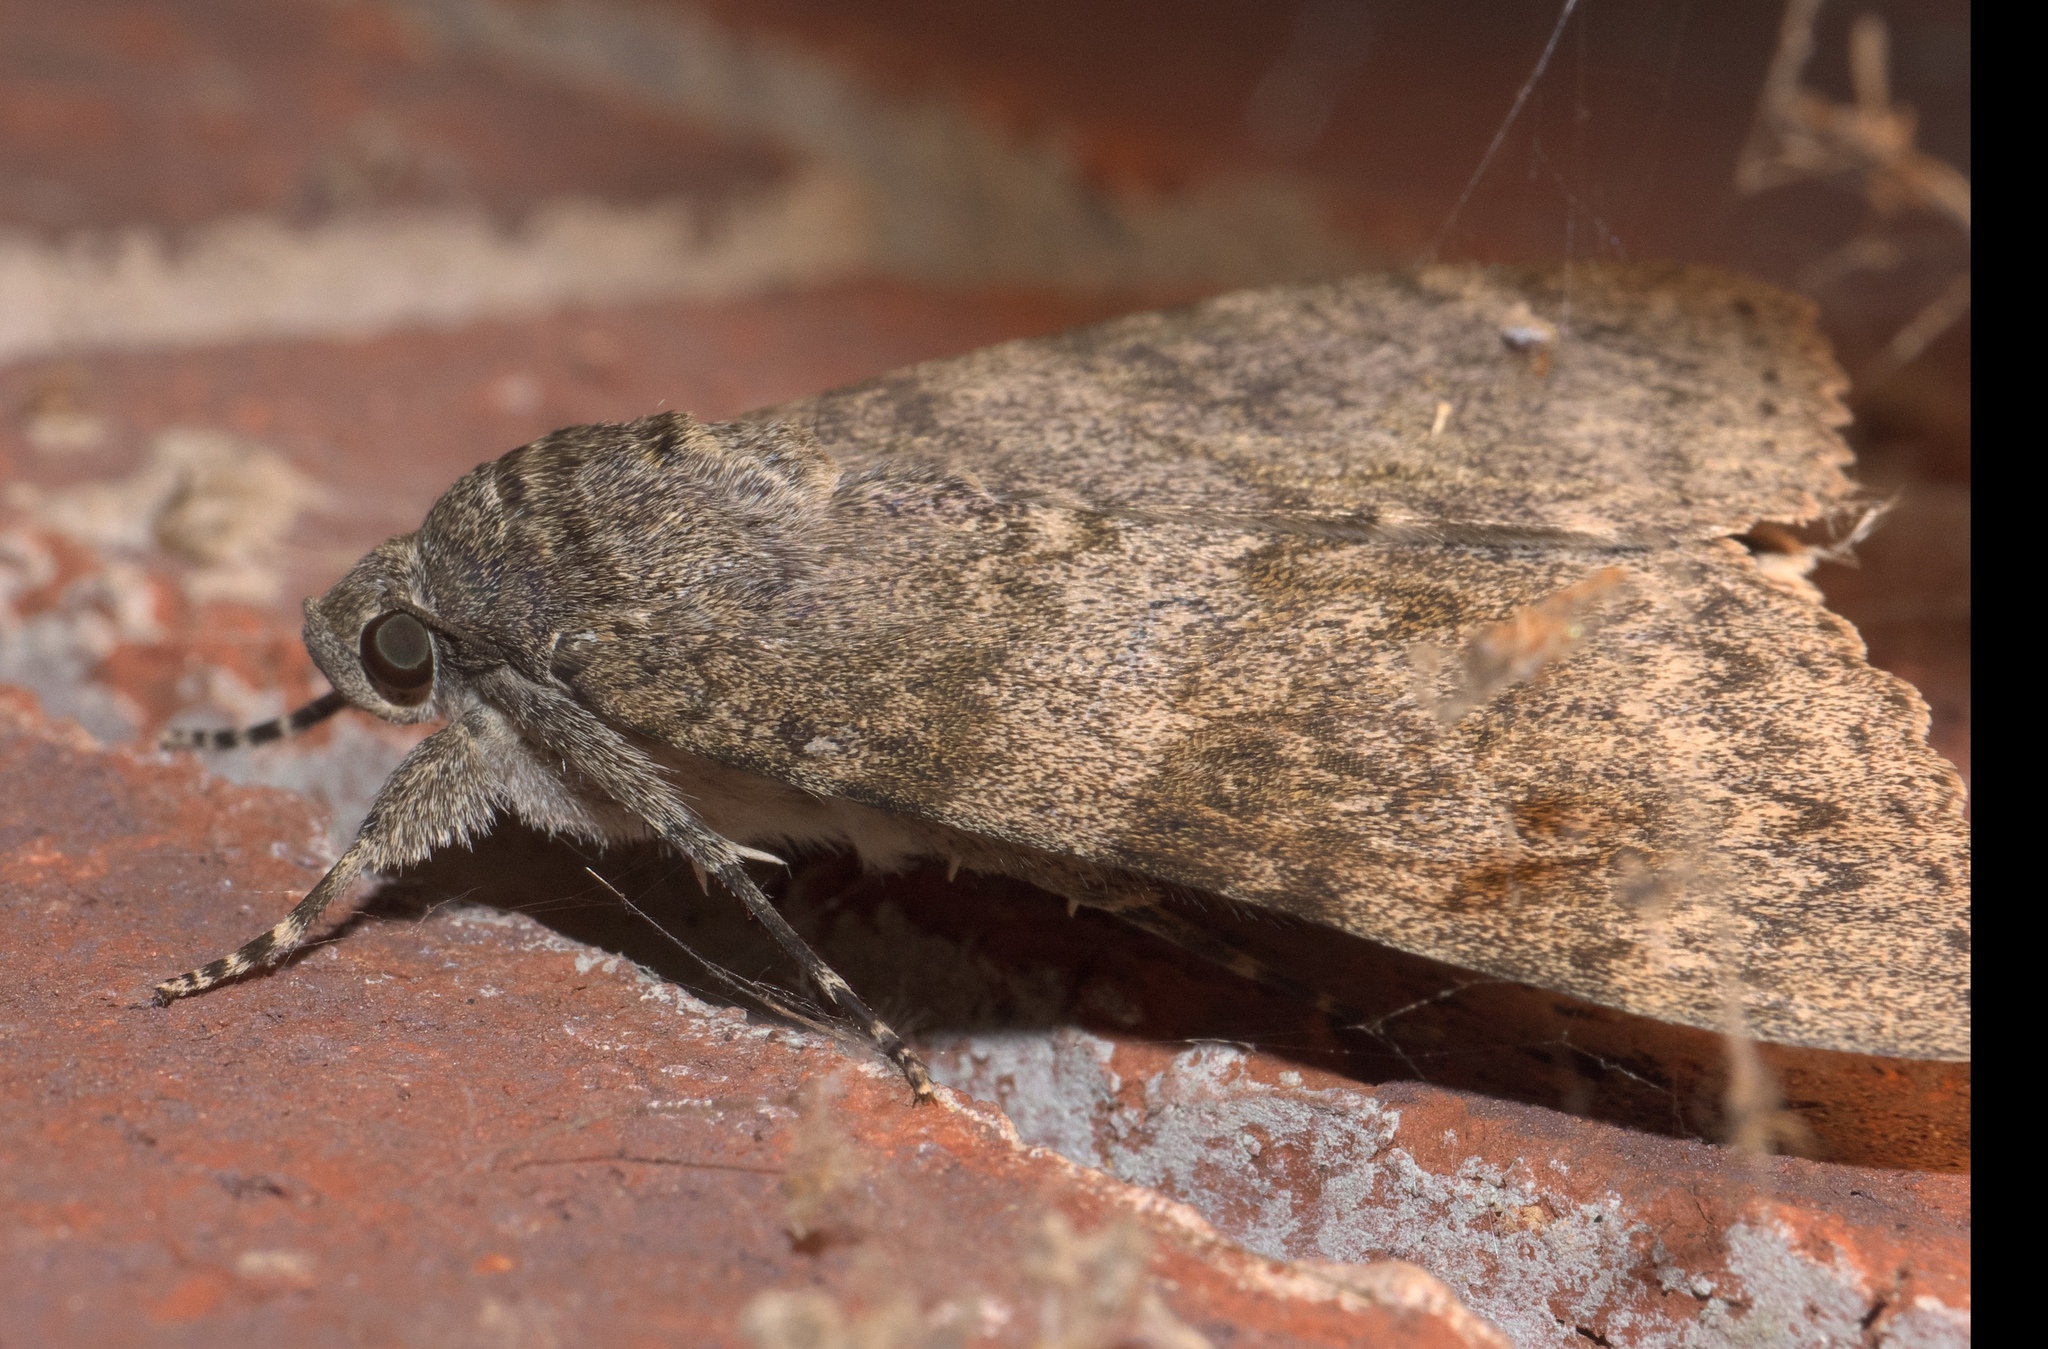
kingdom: Animalia
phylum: Arthropoda
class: Insecta
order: Lepidoptera
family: Erebidae
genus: Catocala
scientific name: Catocala junctura
